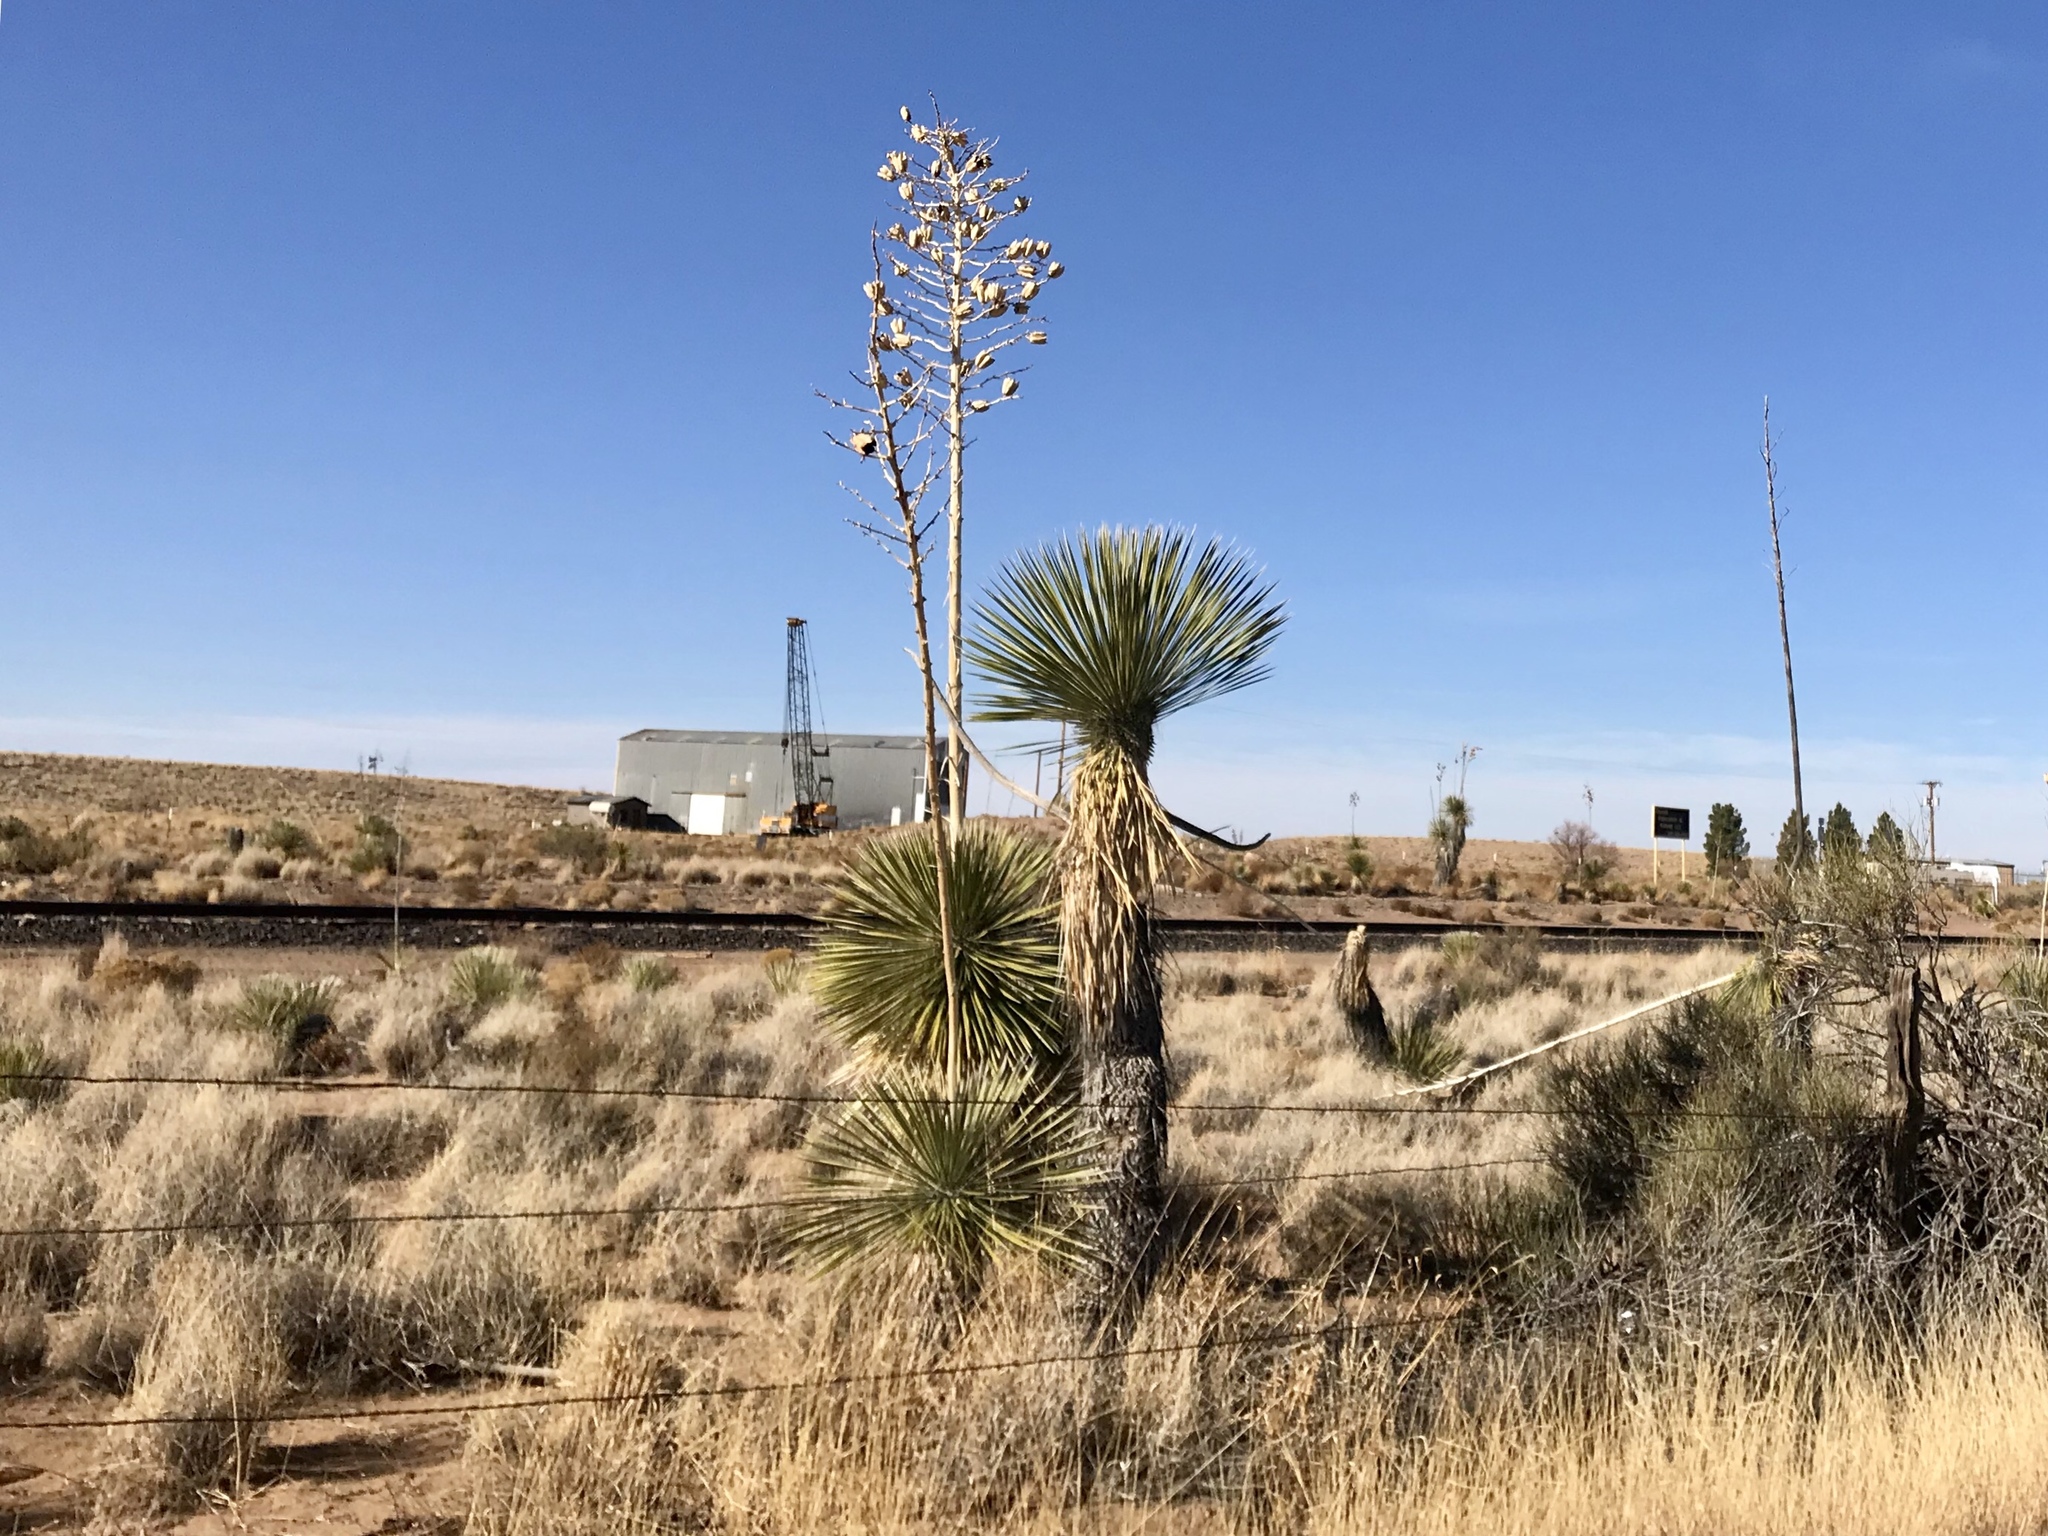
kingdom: Plantae
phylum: Tracheophyta
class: Liliopsida
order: Asparagales
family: Asparagaceae
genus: Yucca
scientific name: Yucca elata
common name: Palmella
